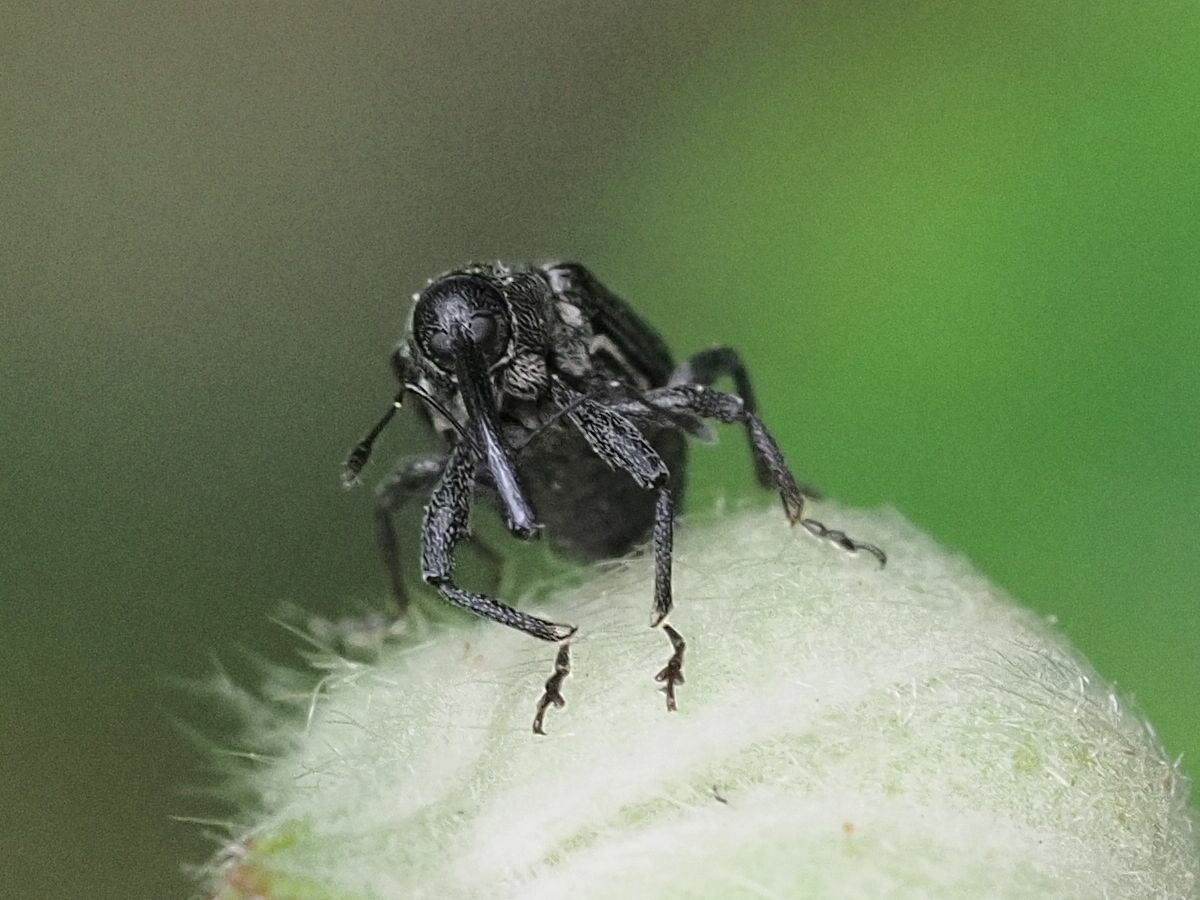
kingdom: Animalia
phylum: Arthropoda
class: Insecta
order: Coleoptera
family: Curculionidae
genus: Anthonomus
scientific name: Anthonomus rubi
